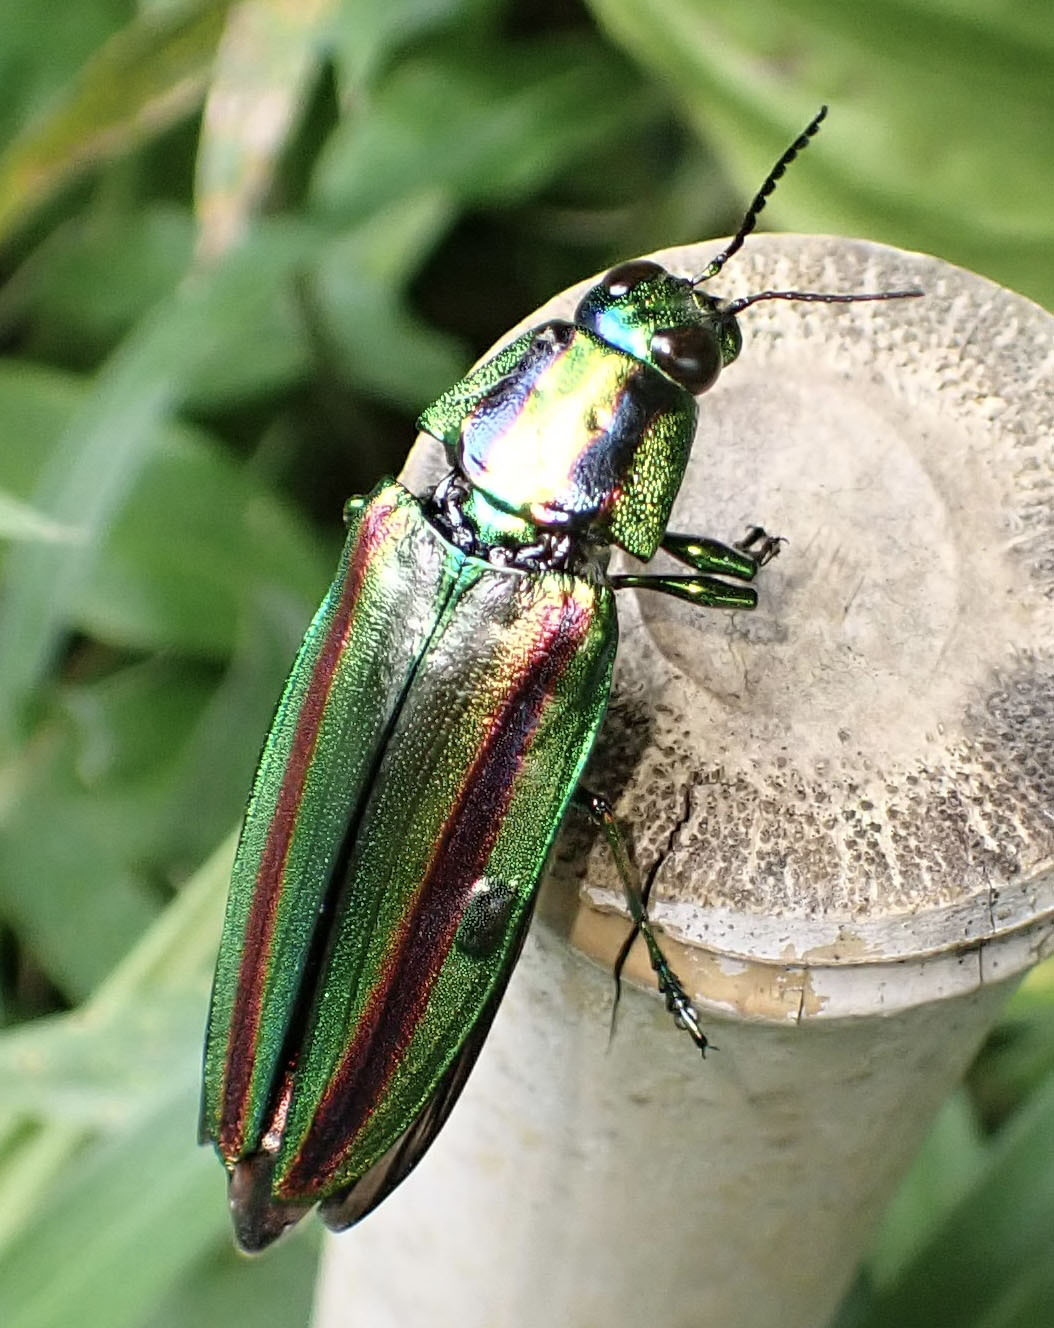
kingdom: Animalia
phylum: Arthropoda
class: Insecta
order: Coleoptera
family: Buprestidae
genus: Chrysochroa
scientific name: Chrysochroa fulgidissima
